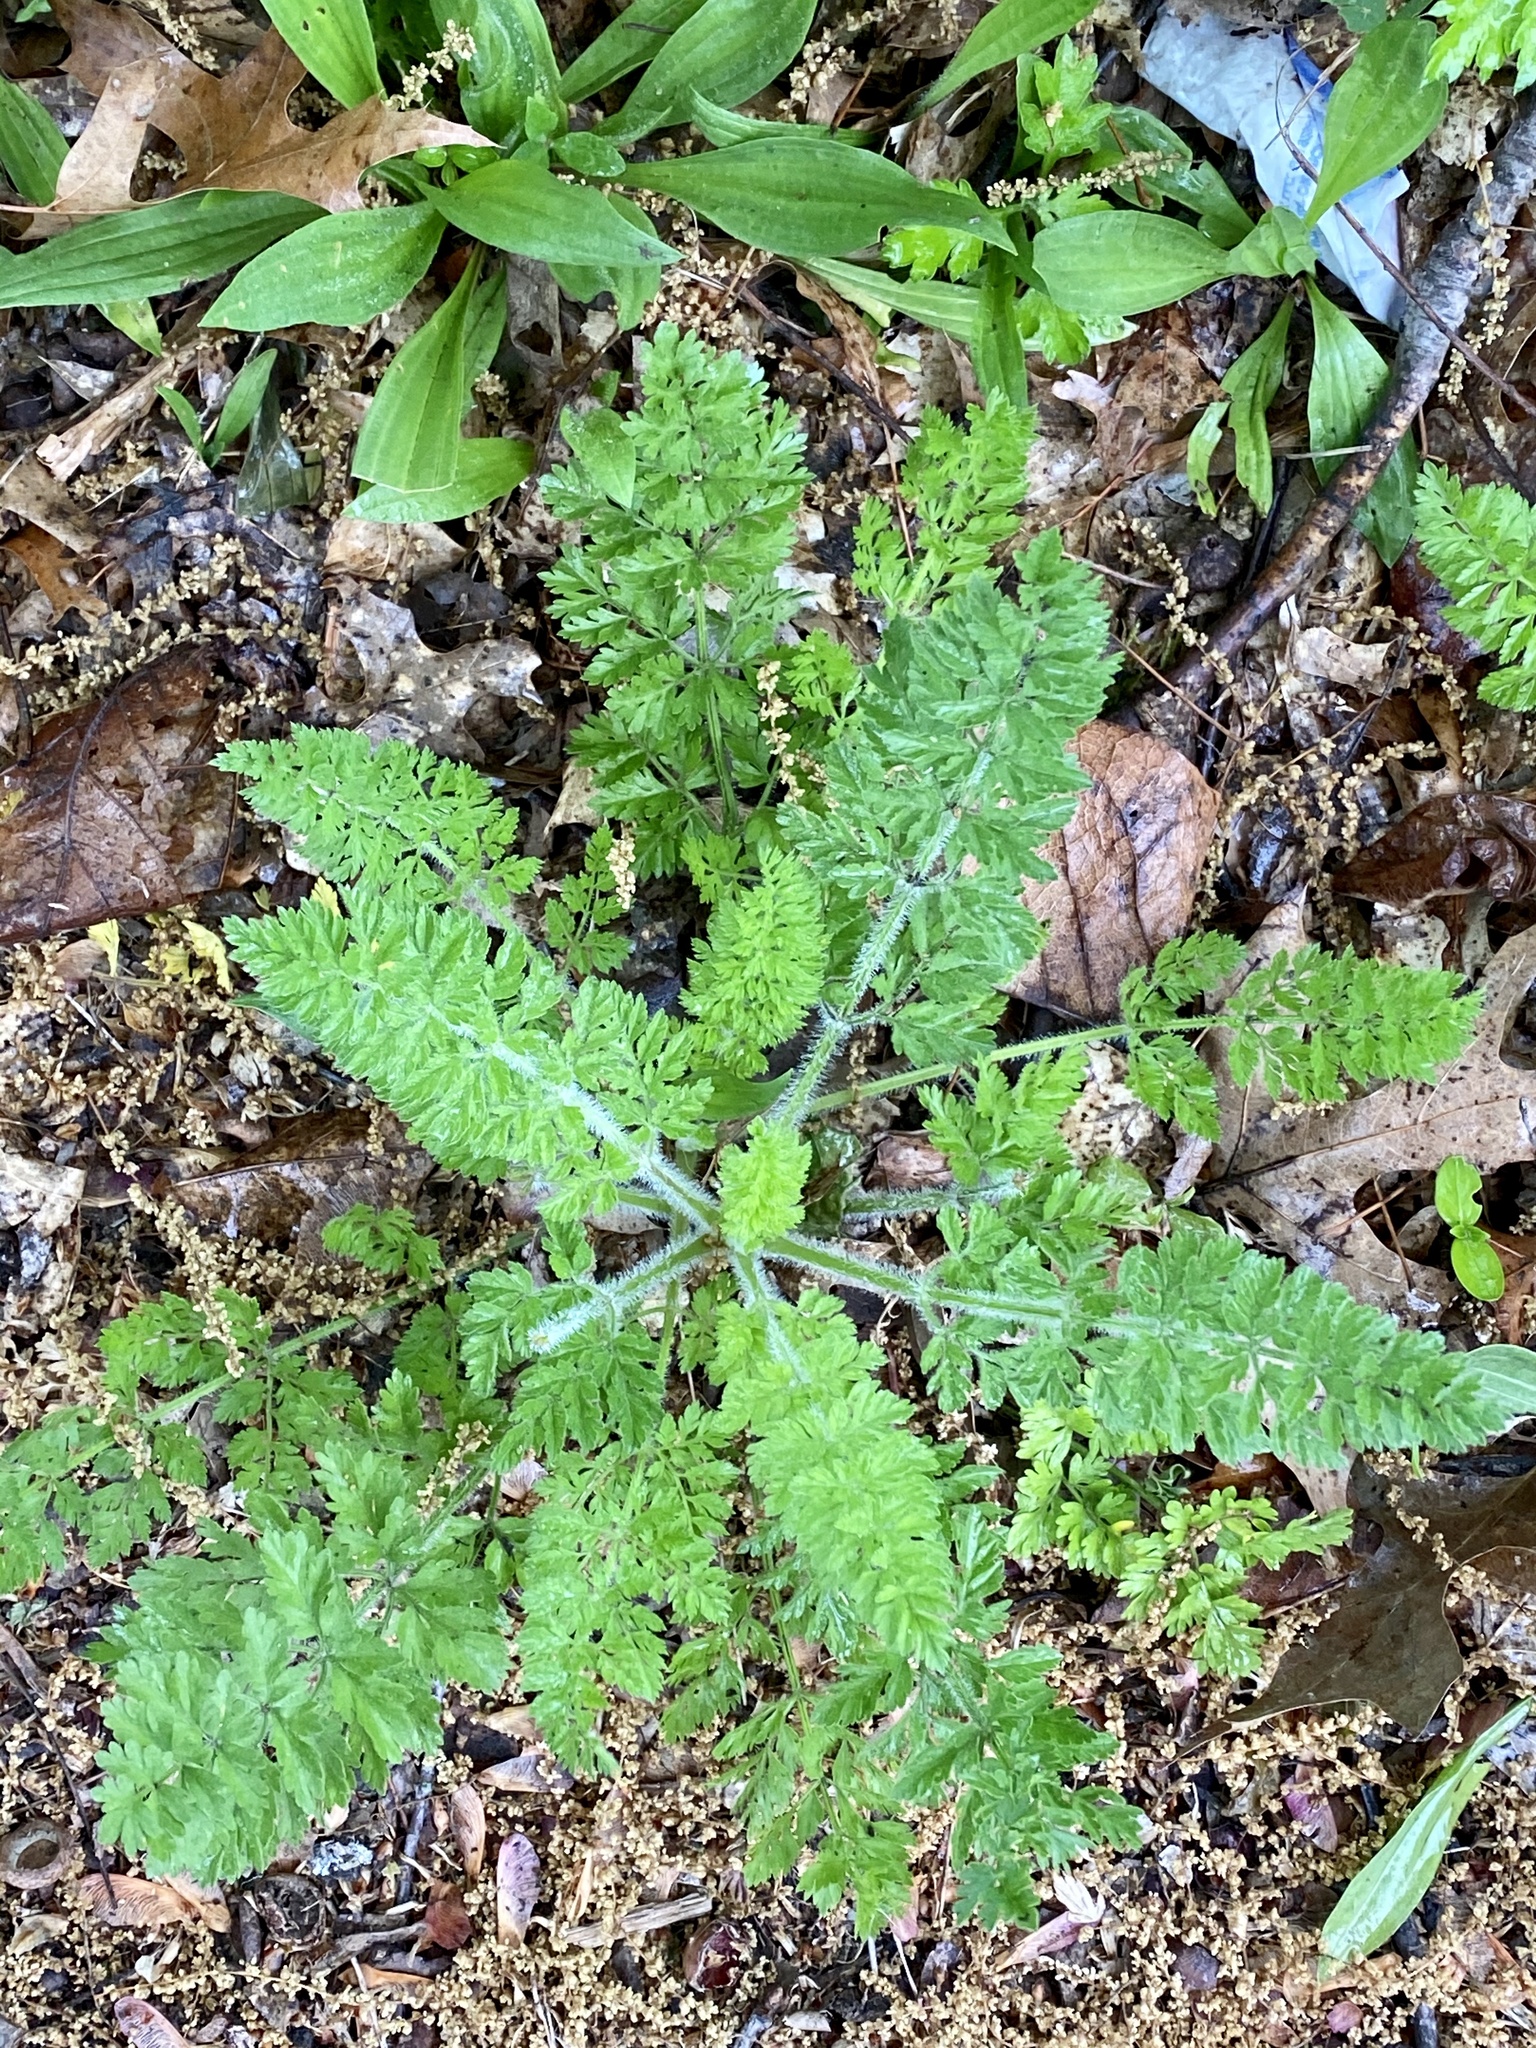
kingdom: Plantae
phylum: Tracheophyta
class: Magnoliopsida
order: Apiales
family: Apiaceae
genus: Daucus
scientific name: Daucus carota
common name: Wild carrot
